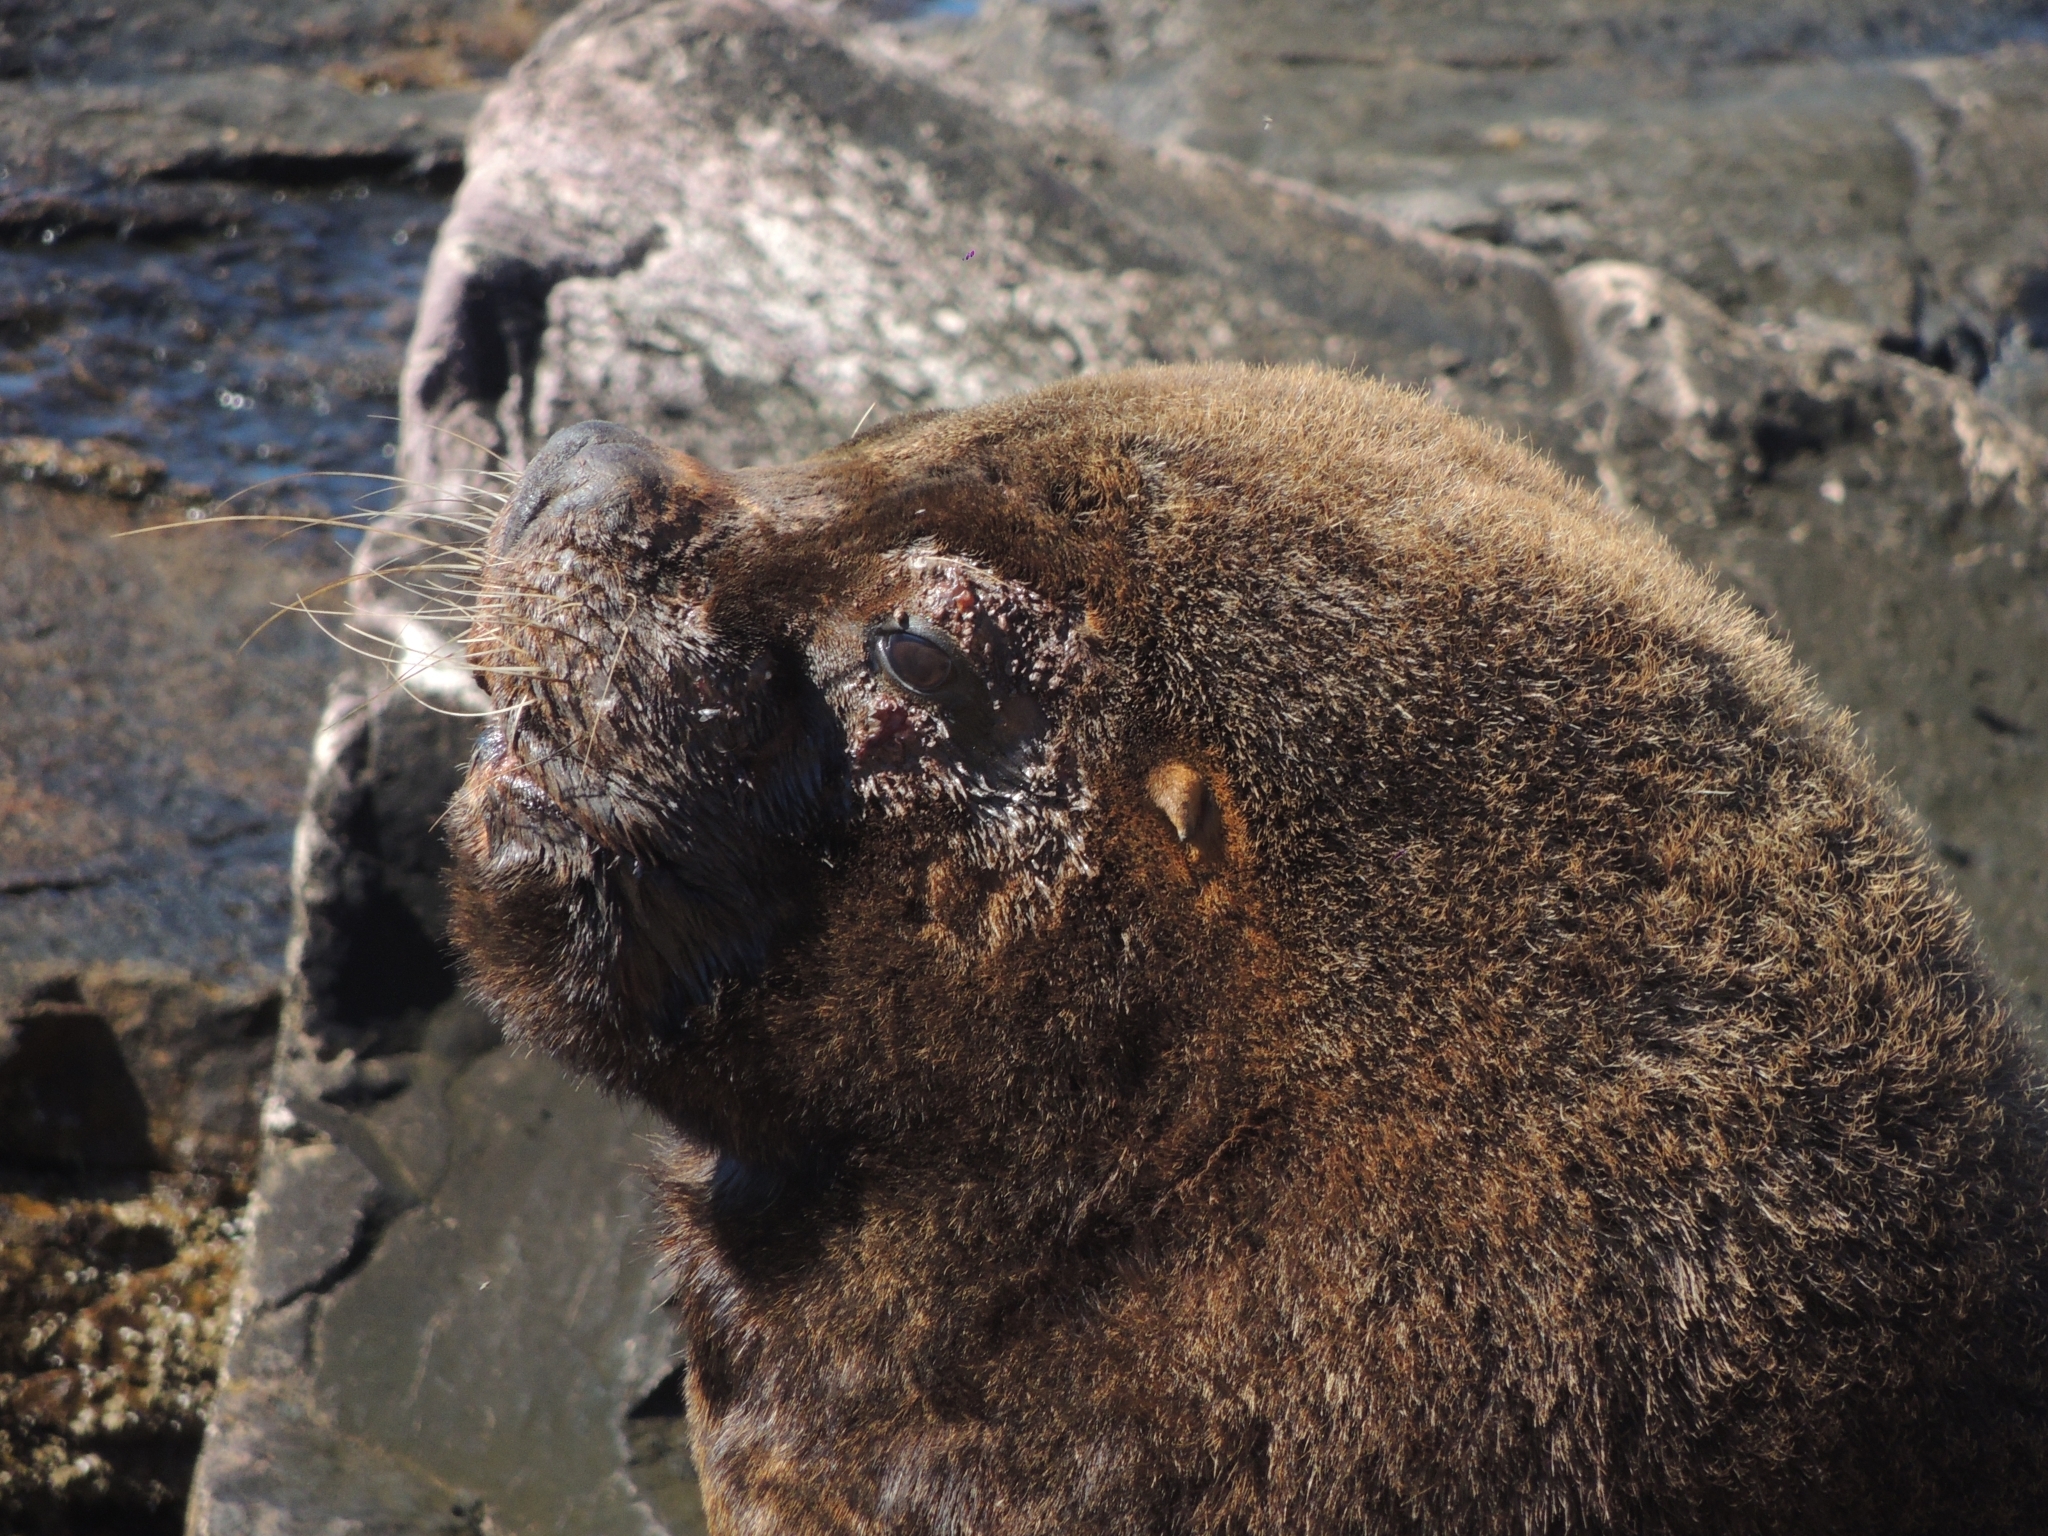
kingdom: Animalia
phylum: Chordata
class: Mammalia
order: Carnivora
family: Otariidae
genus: Otaria
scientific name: Otaria byronia
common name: South american sea lion
